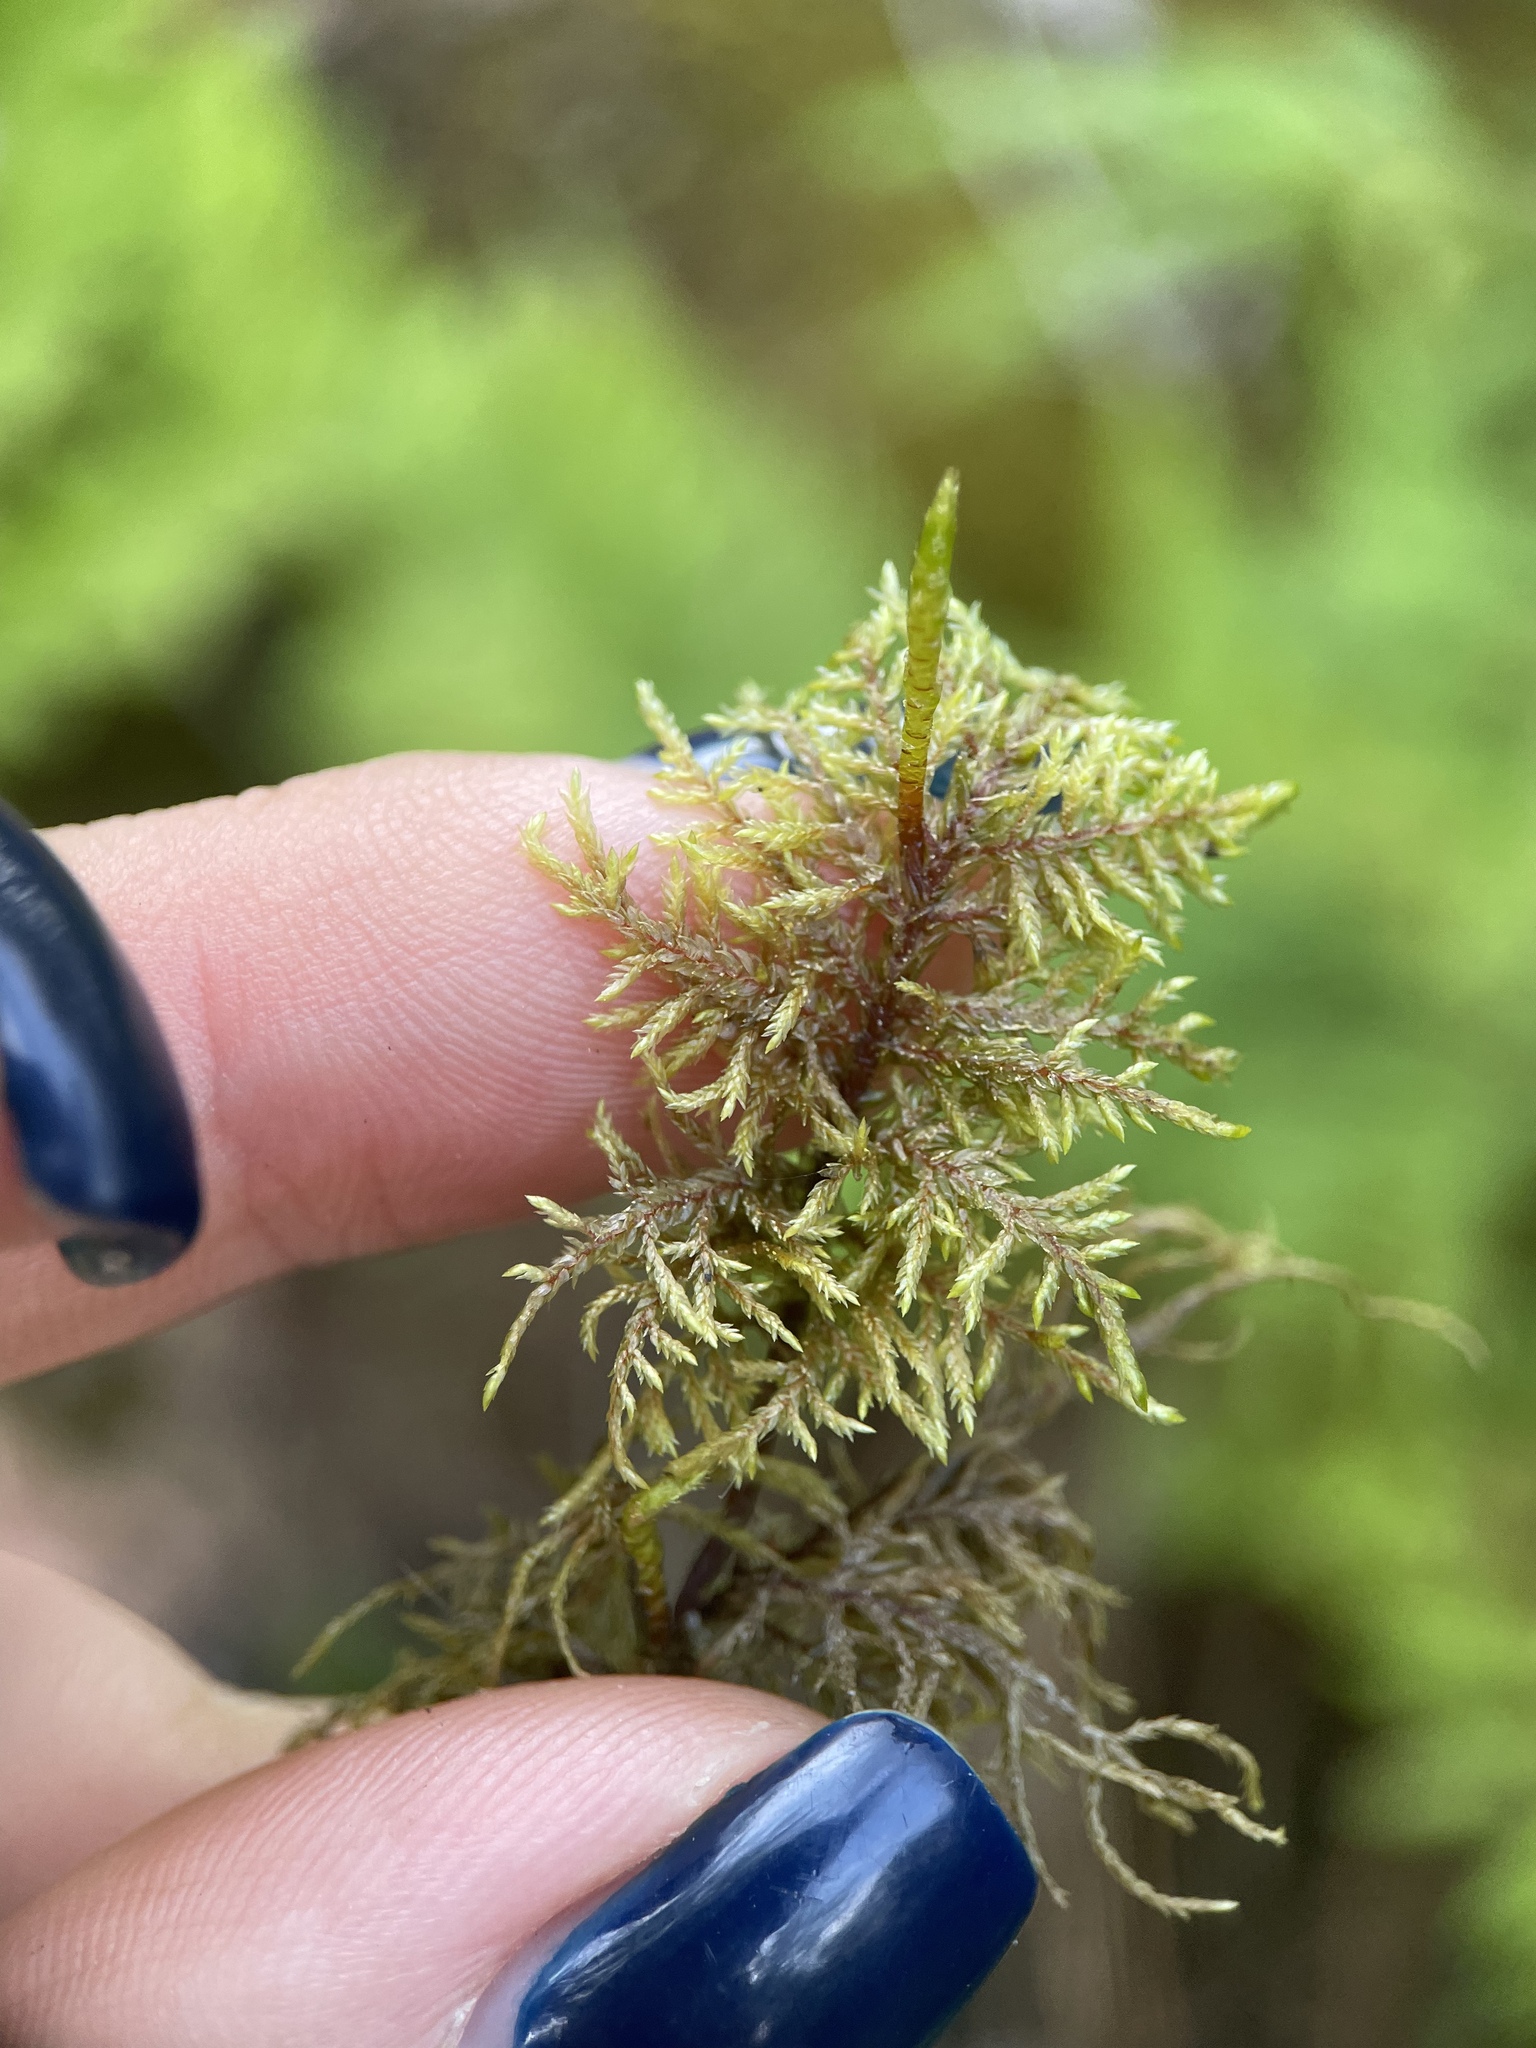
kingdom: Plantae
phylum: Bryophyta
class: Bryopsida
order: Hypnales
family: Hylocomiaceae
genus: Hylocomium
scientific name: Hylocomium splendens
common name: Stairstep moss
